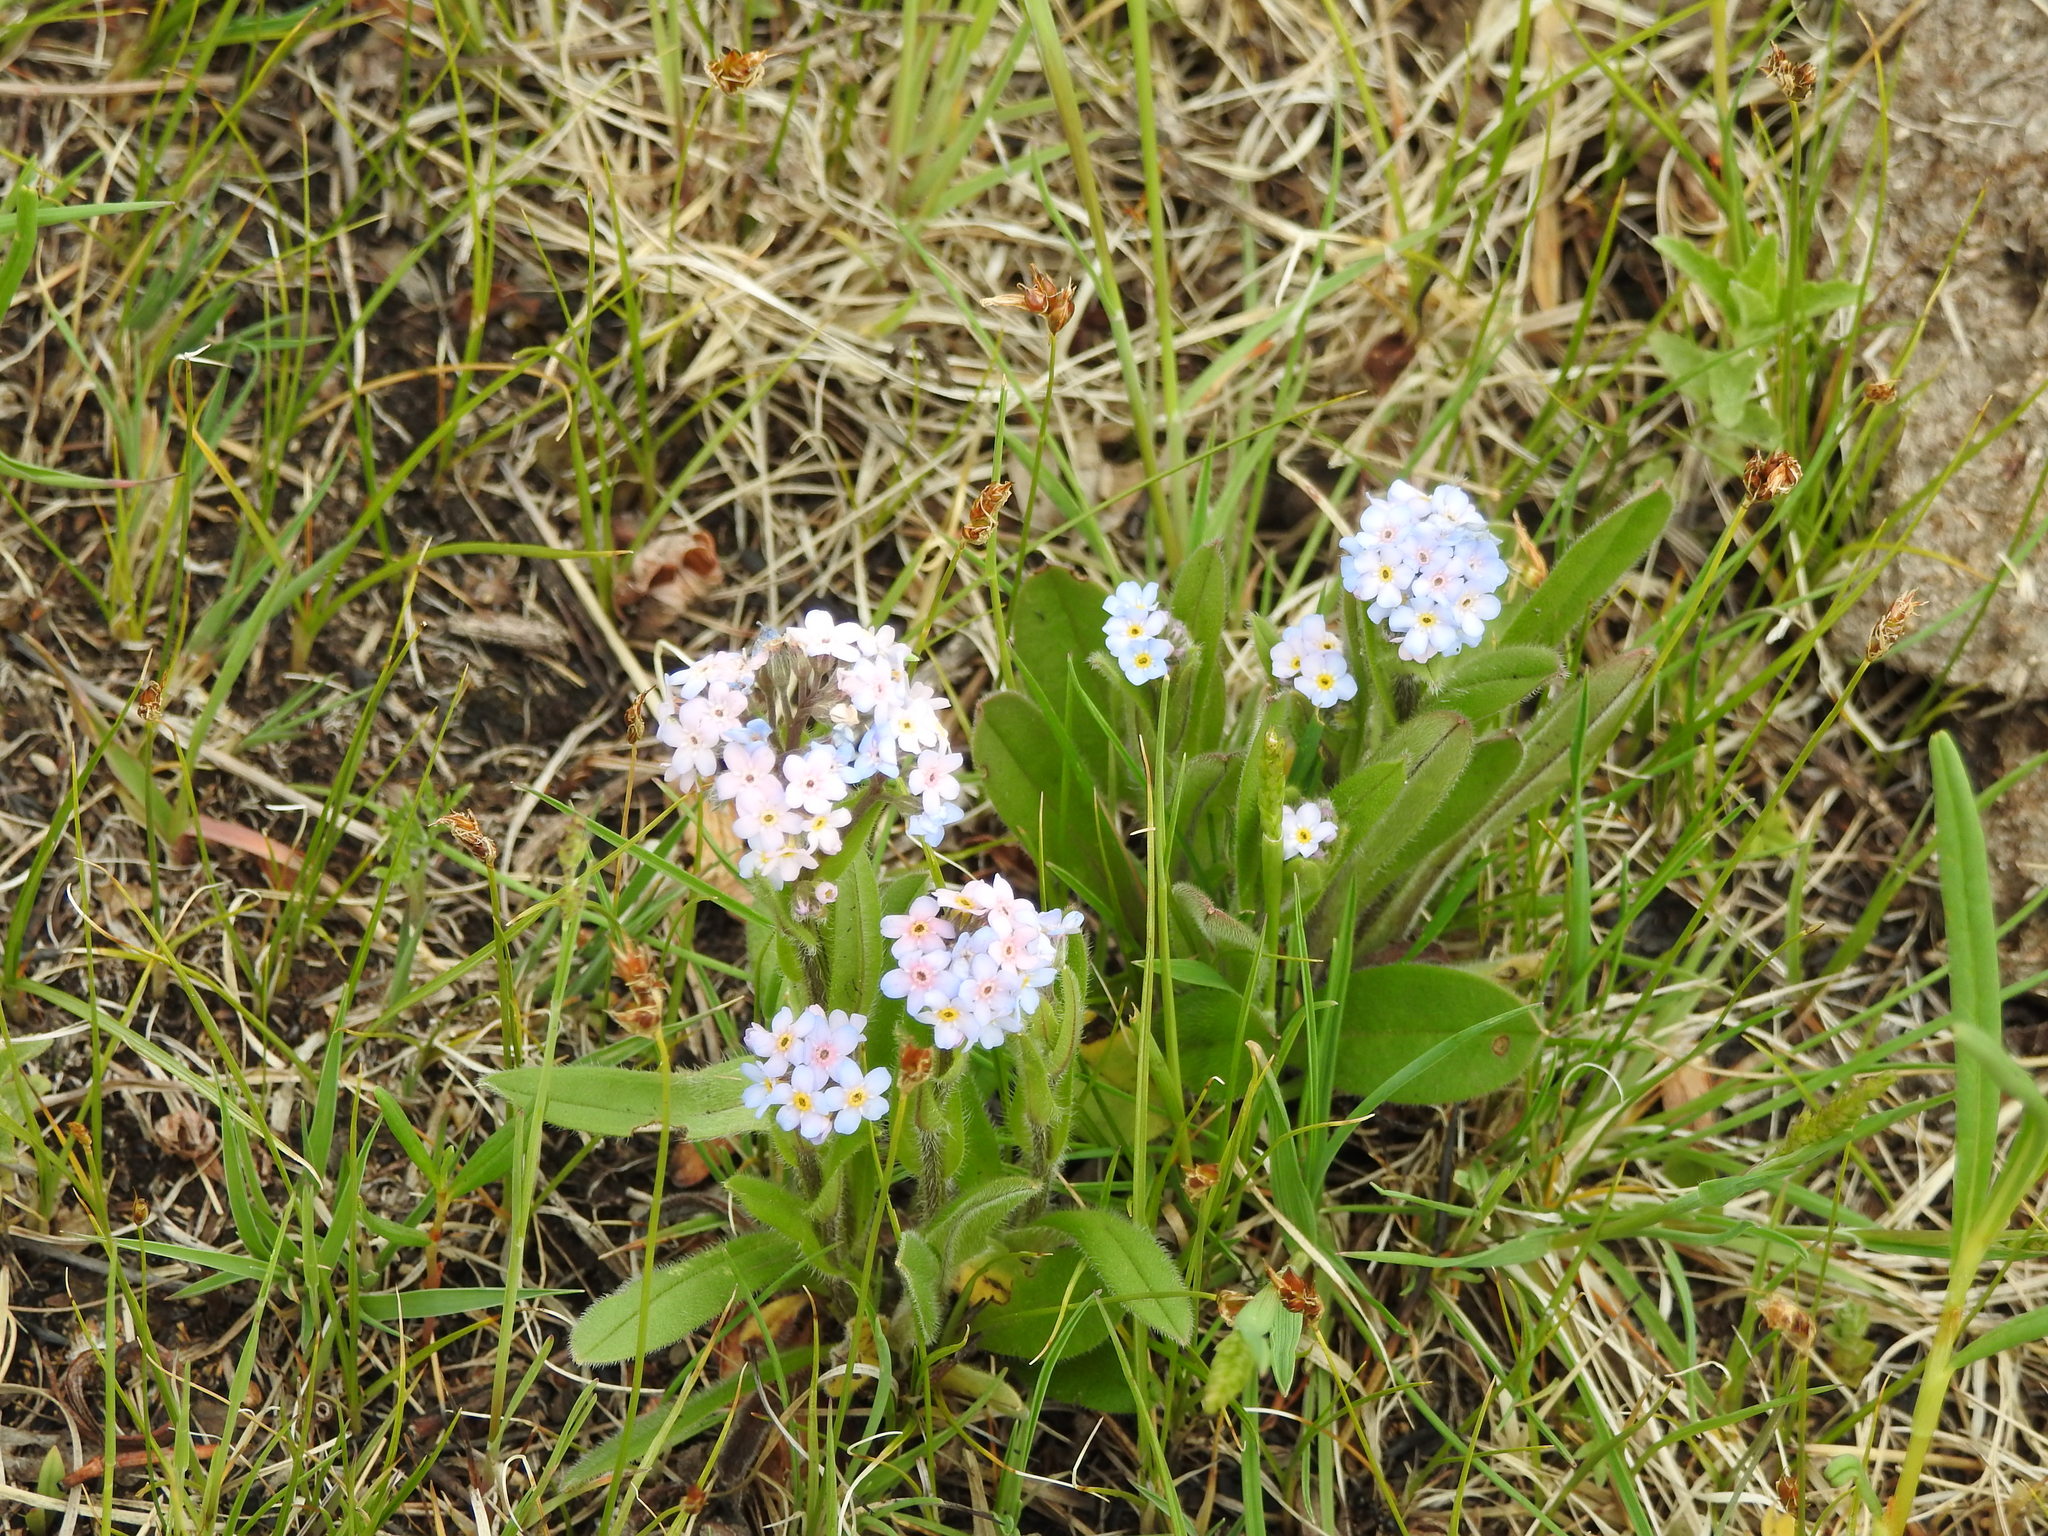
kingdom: Plantae
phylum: Tracheophyta
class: Magnoliopsida
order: Boraginales
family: Boraginaceae
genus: Myosotis
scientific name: Myosotis imitata
